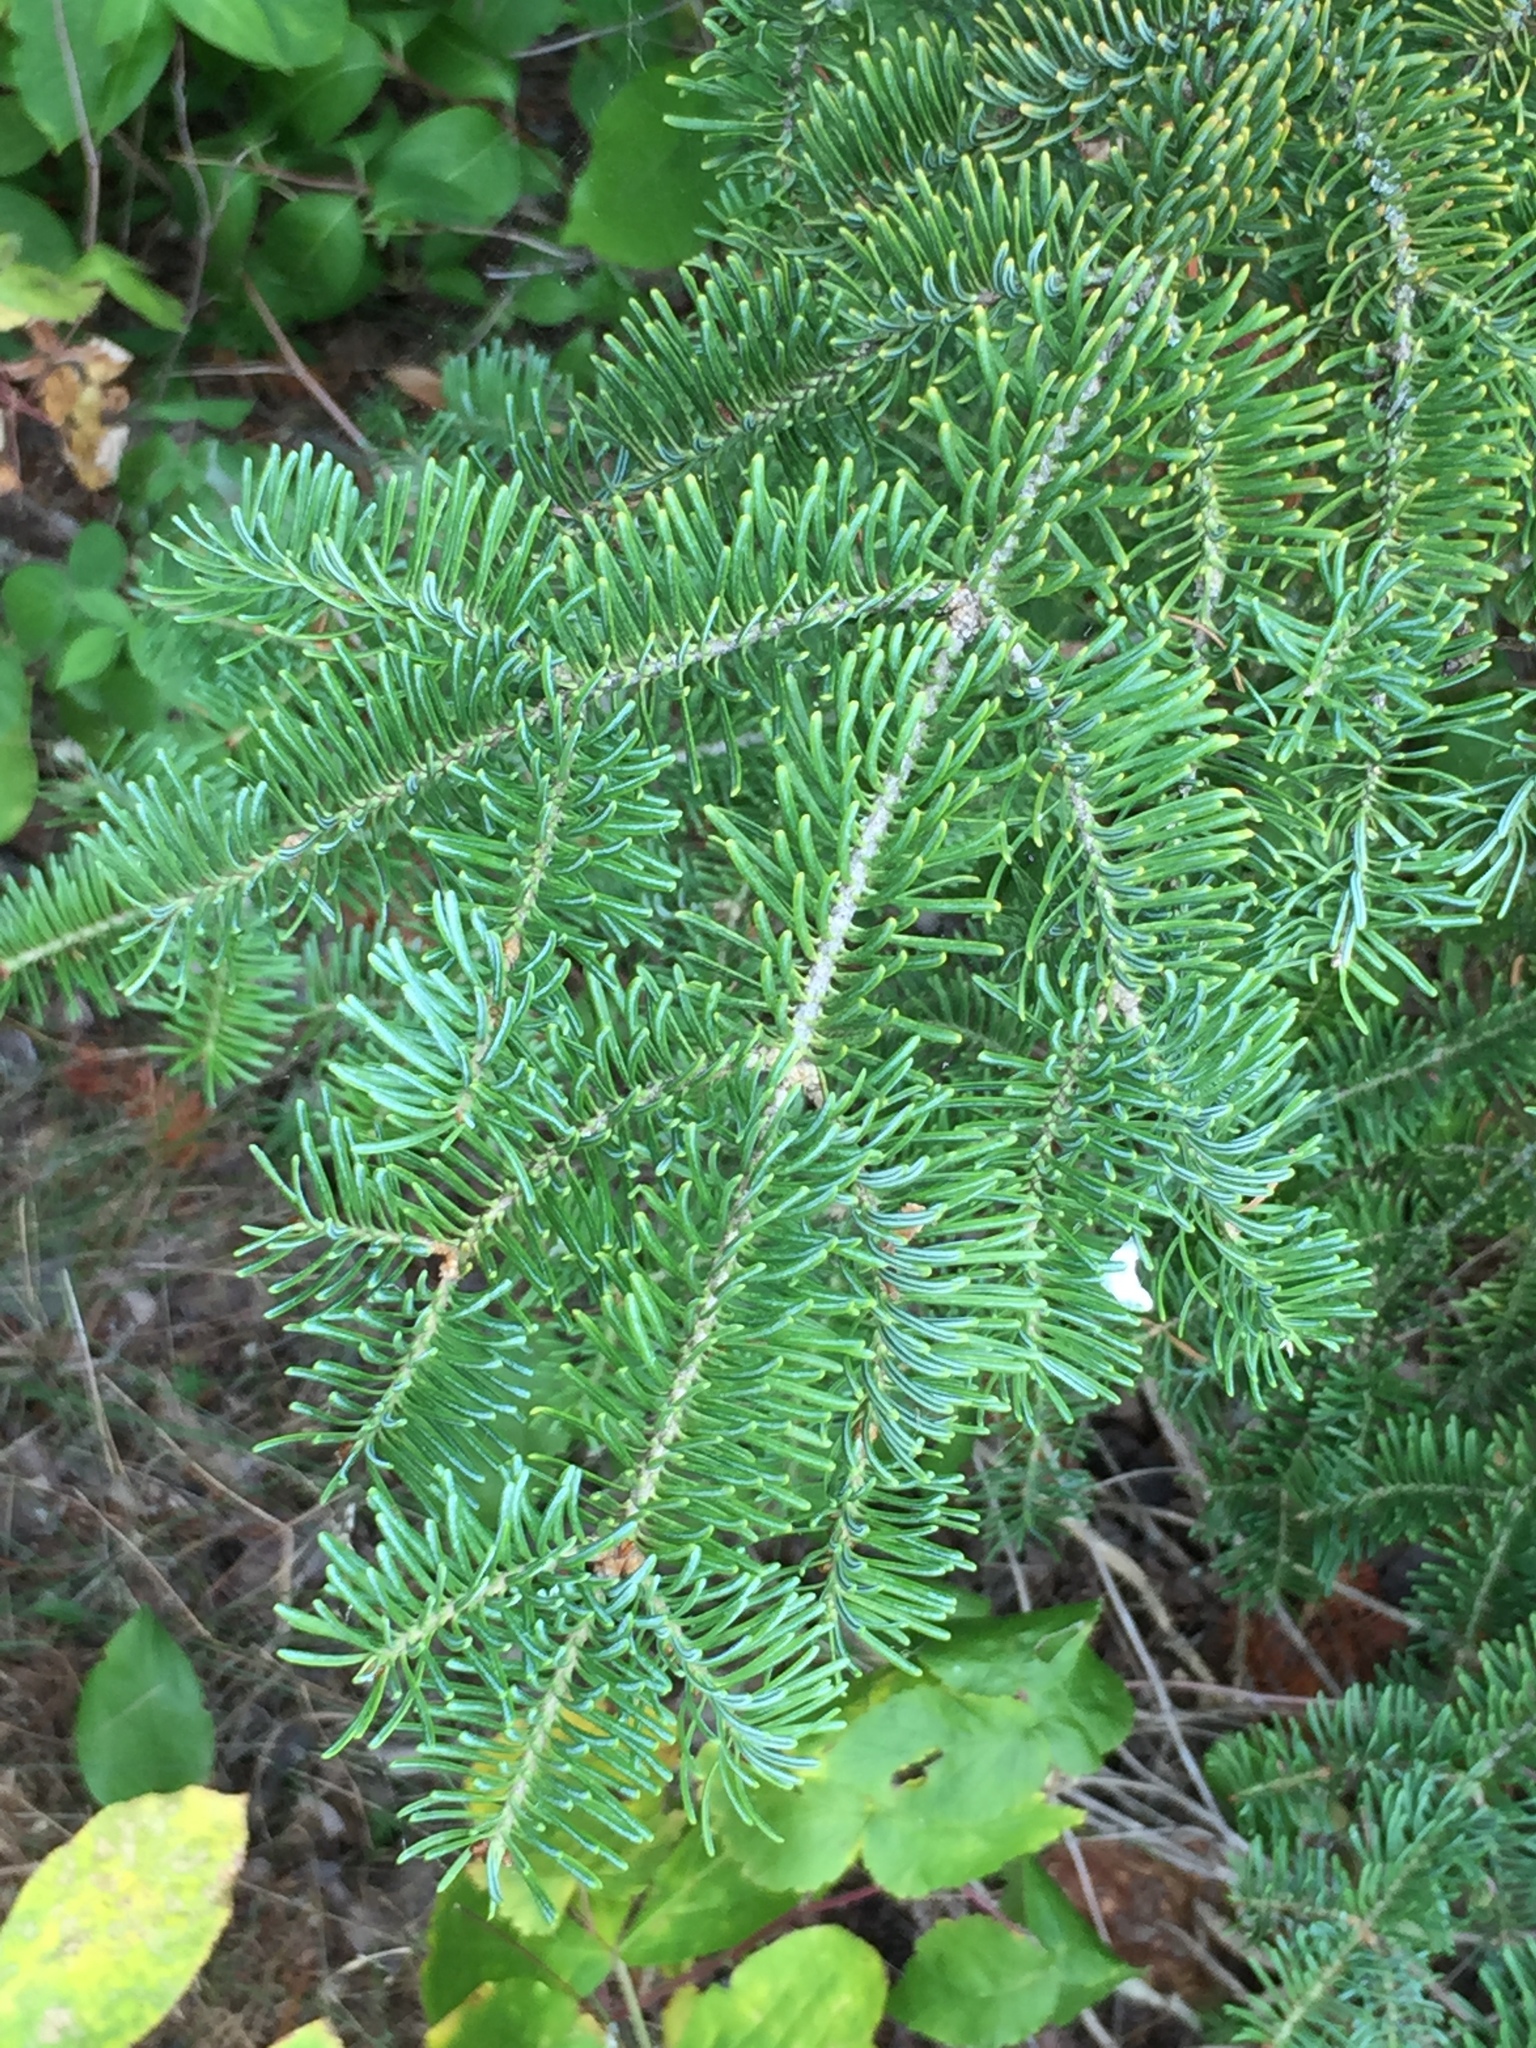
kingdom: Plantae
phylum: Tracheophyta
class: Pinopsida
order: Pinales
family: Pinaceae
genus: Picea
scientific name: Picea glauca
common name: White spruce
